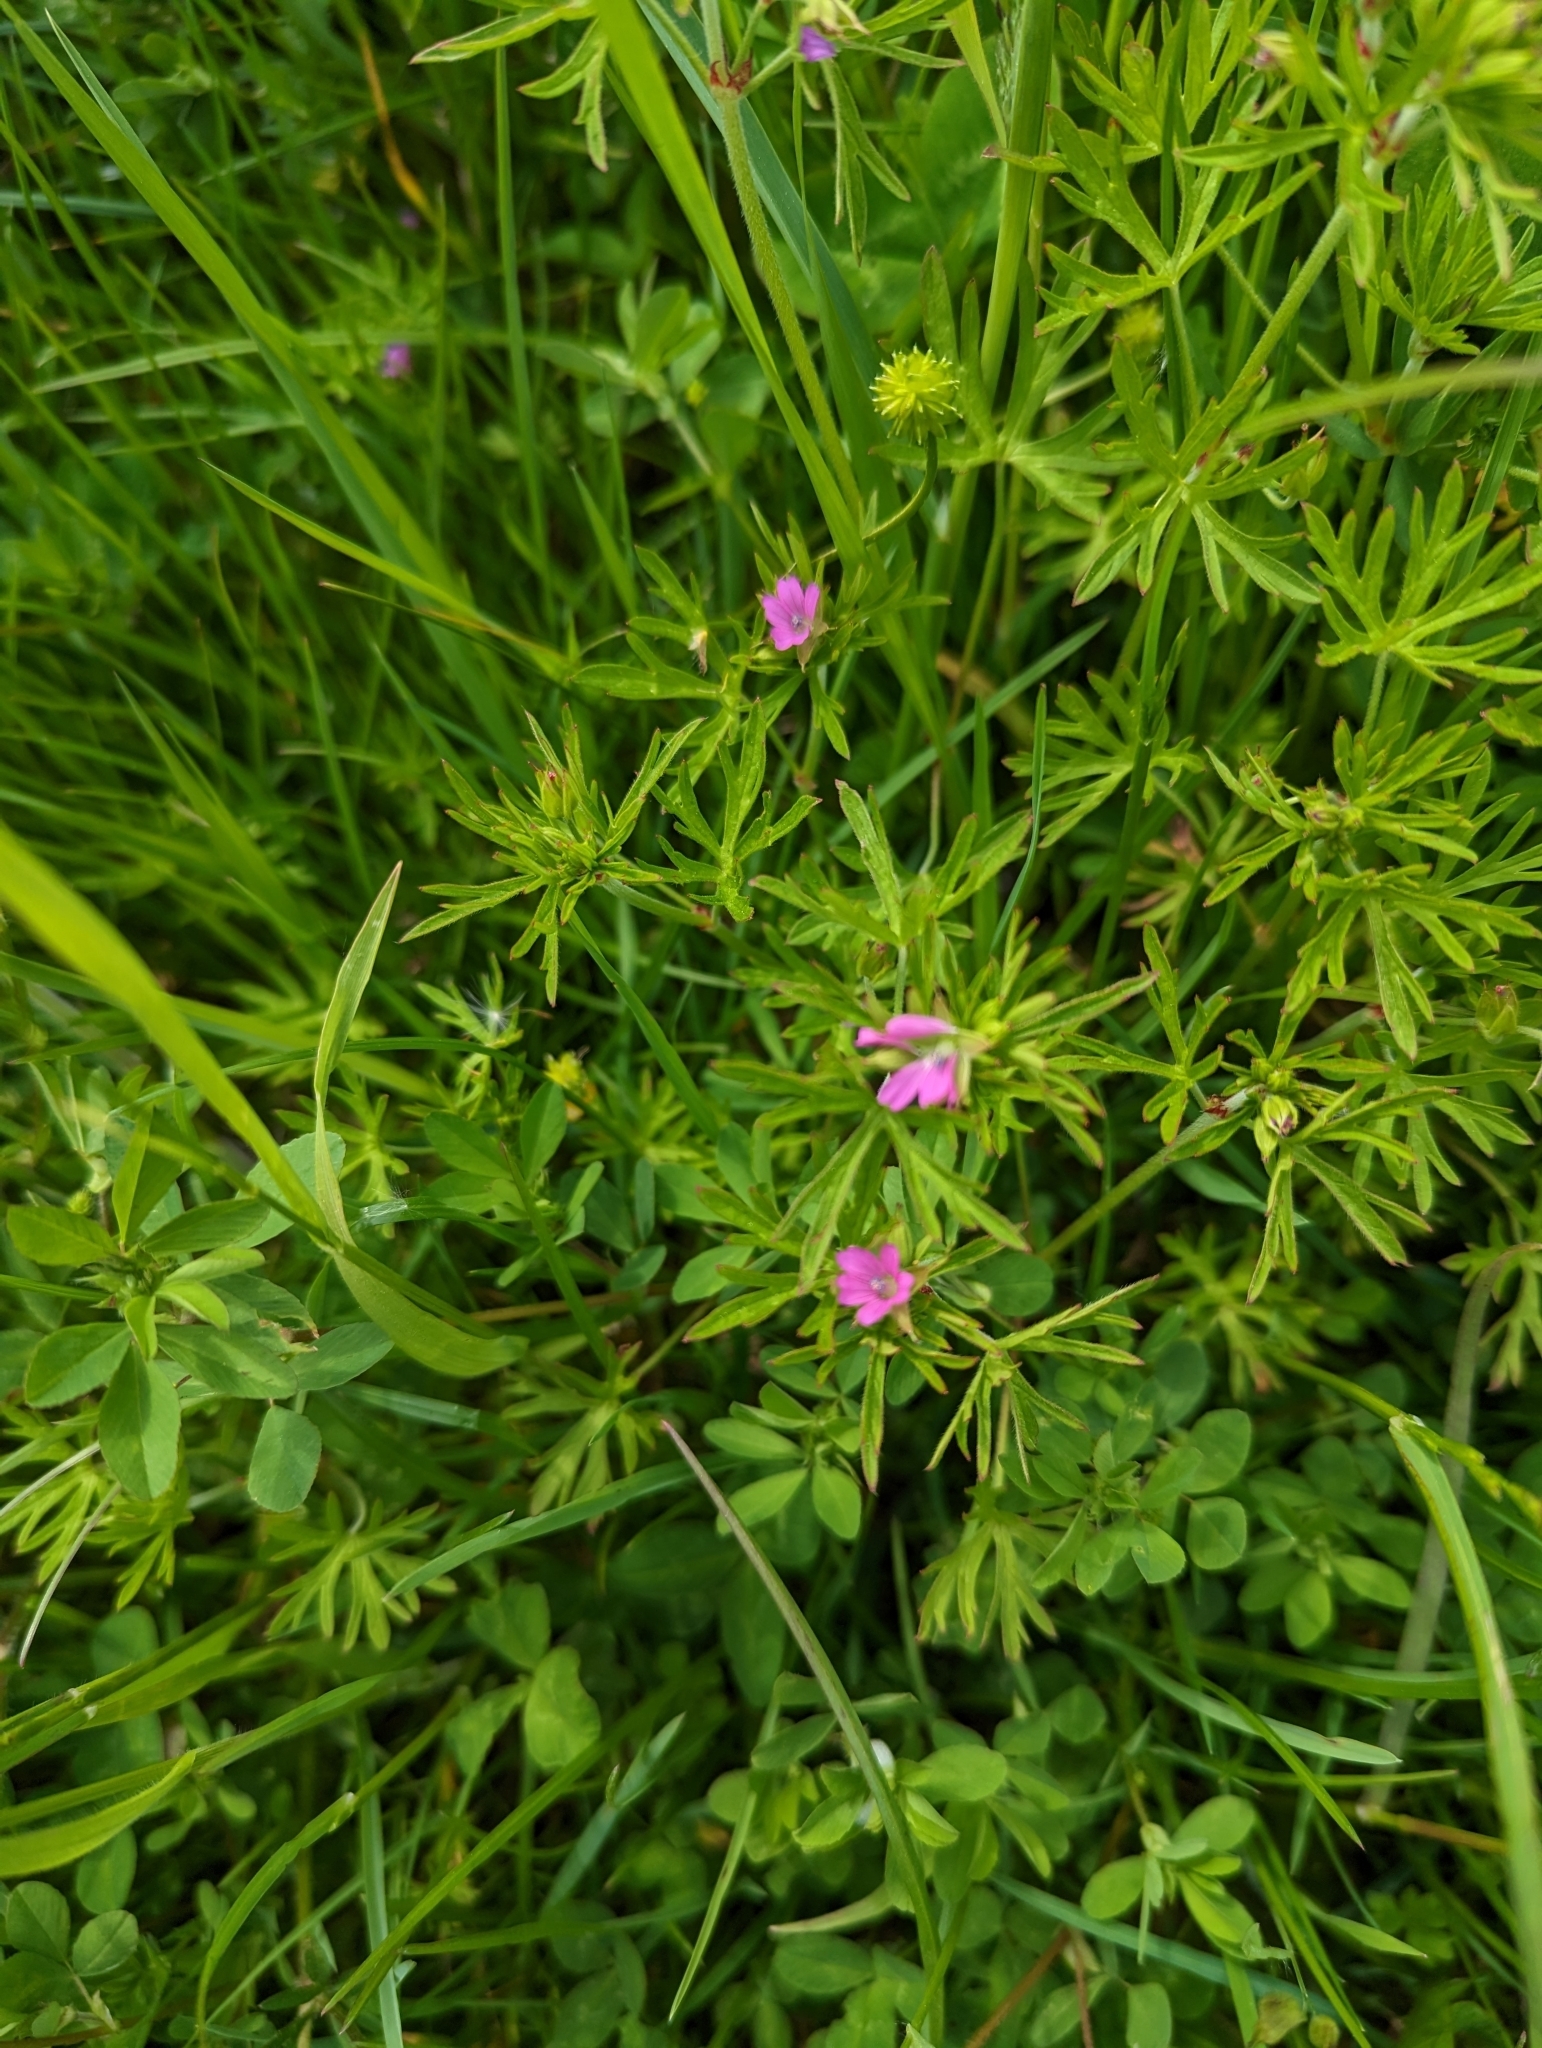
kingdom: Plantae
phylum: Tracheophyta
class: Magnoliopsida
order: Geraniales
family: Geraniaceae
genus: Geranium
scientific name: Geranium dissectum
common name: Cut-leaved crane's-bill
